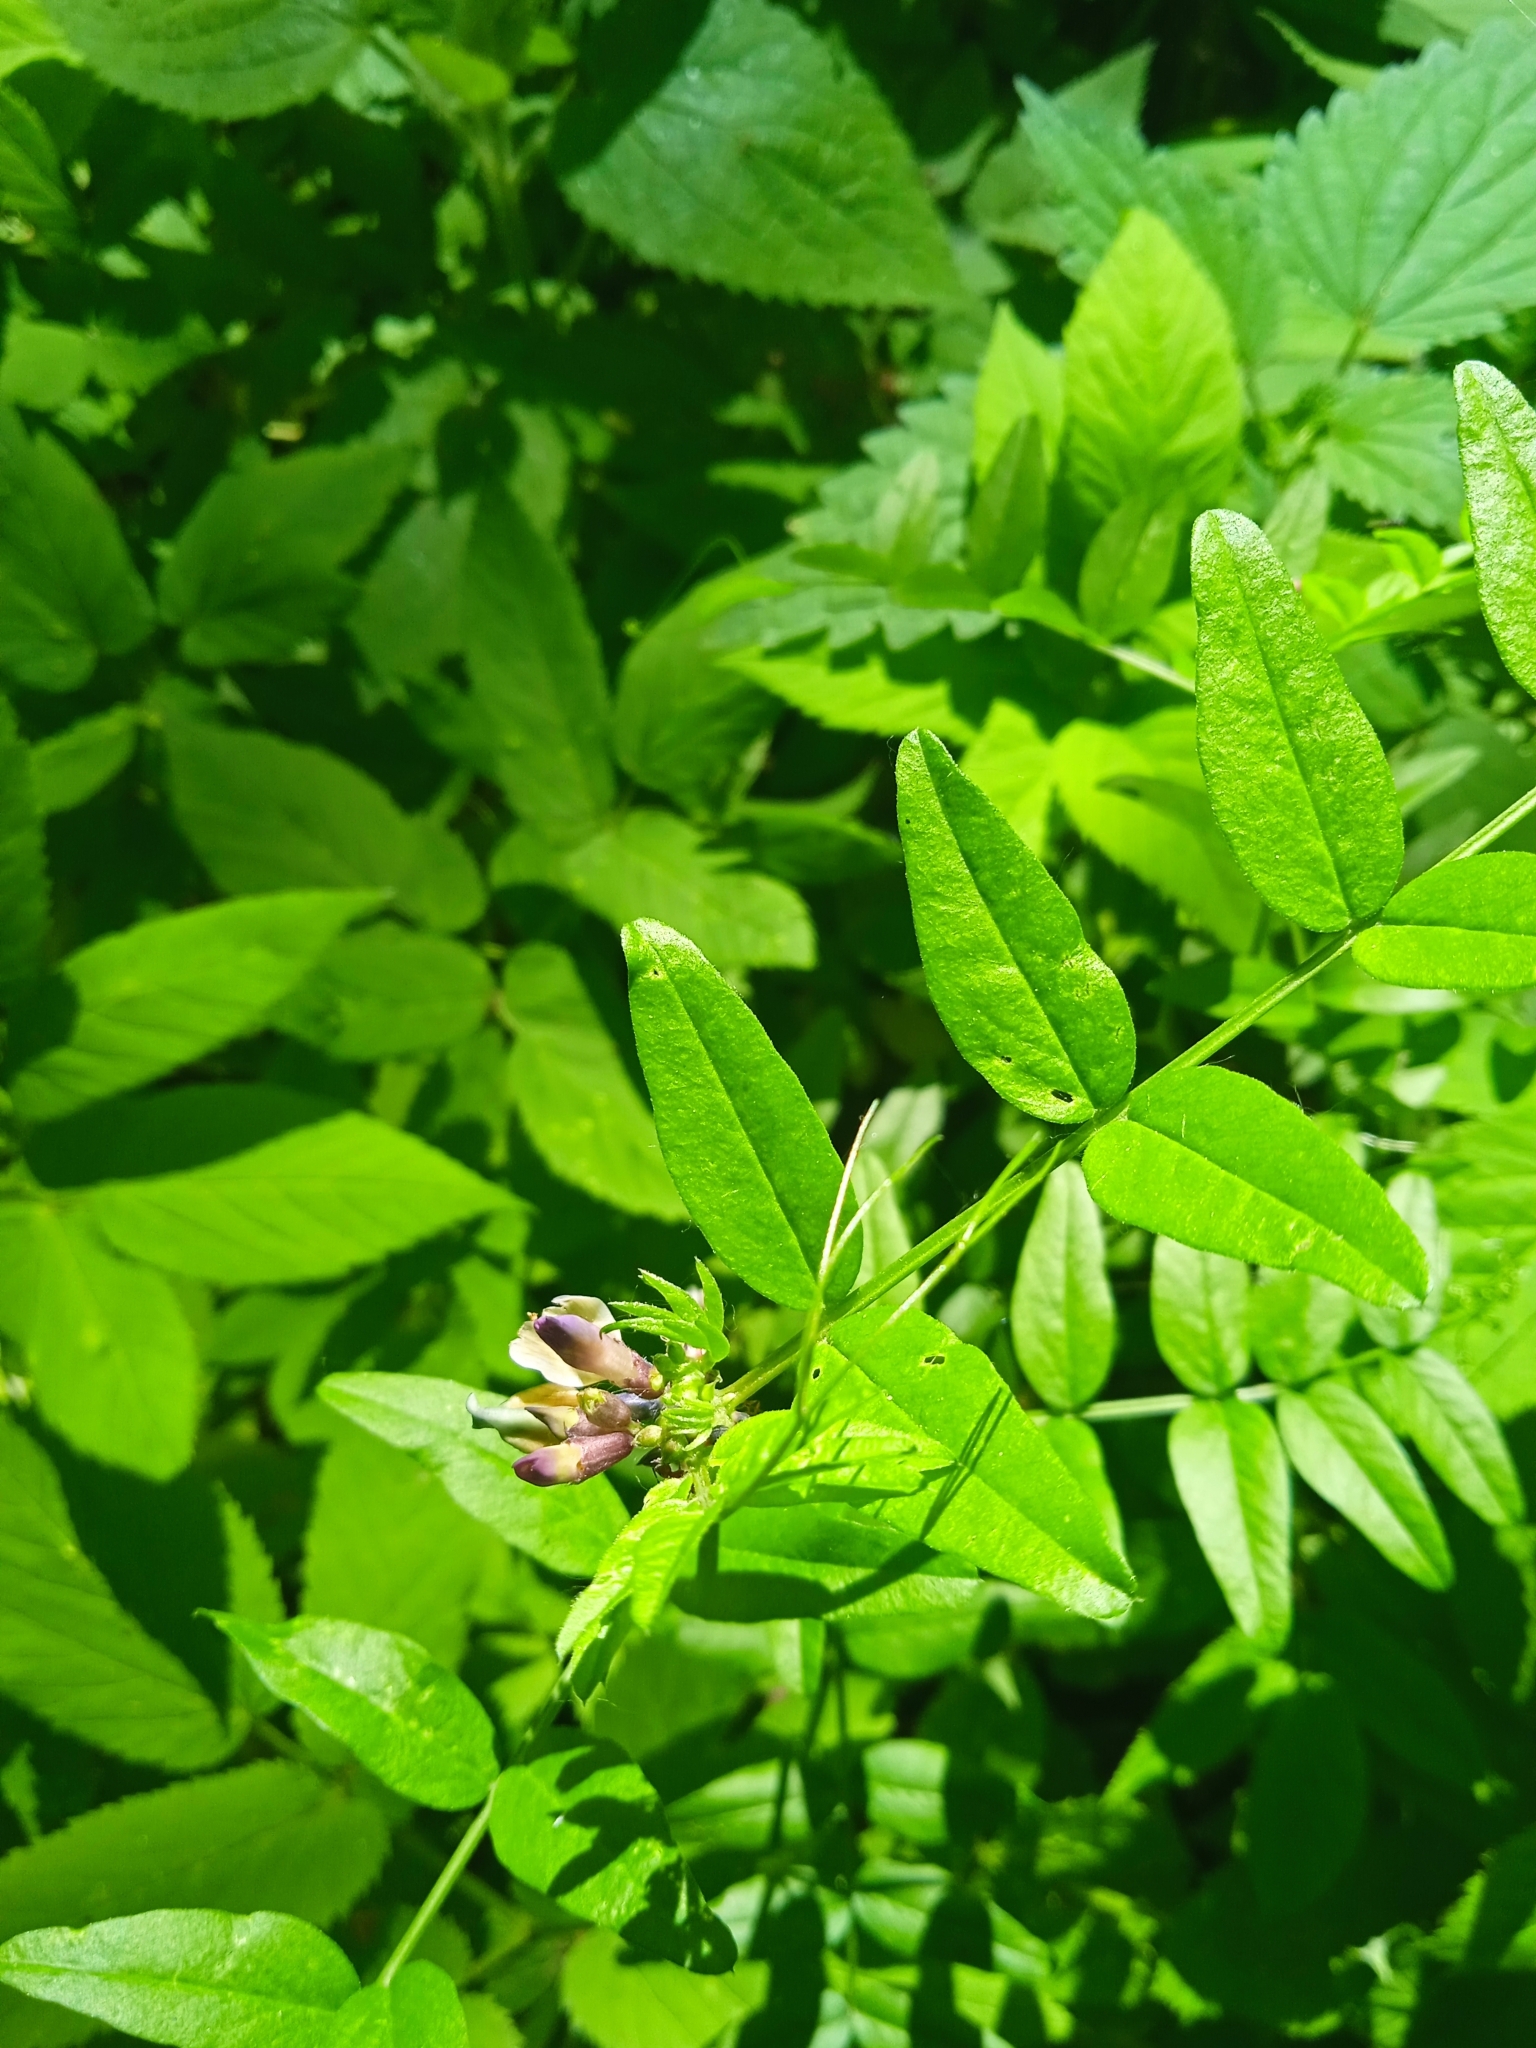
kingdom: Plantae
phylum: Tracheophyta
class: Magnoliopsida
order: Fabales
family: Fabaceae
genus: Vicia
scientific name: Vicia sepium
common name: Bush vetch
